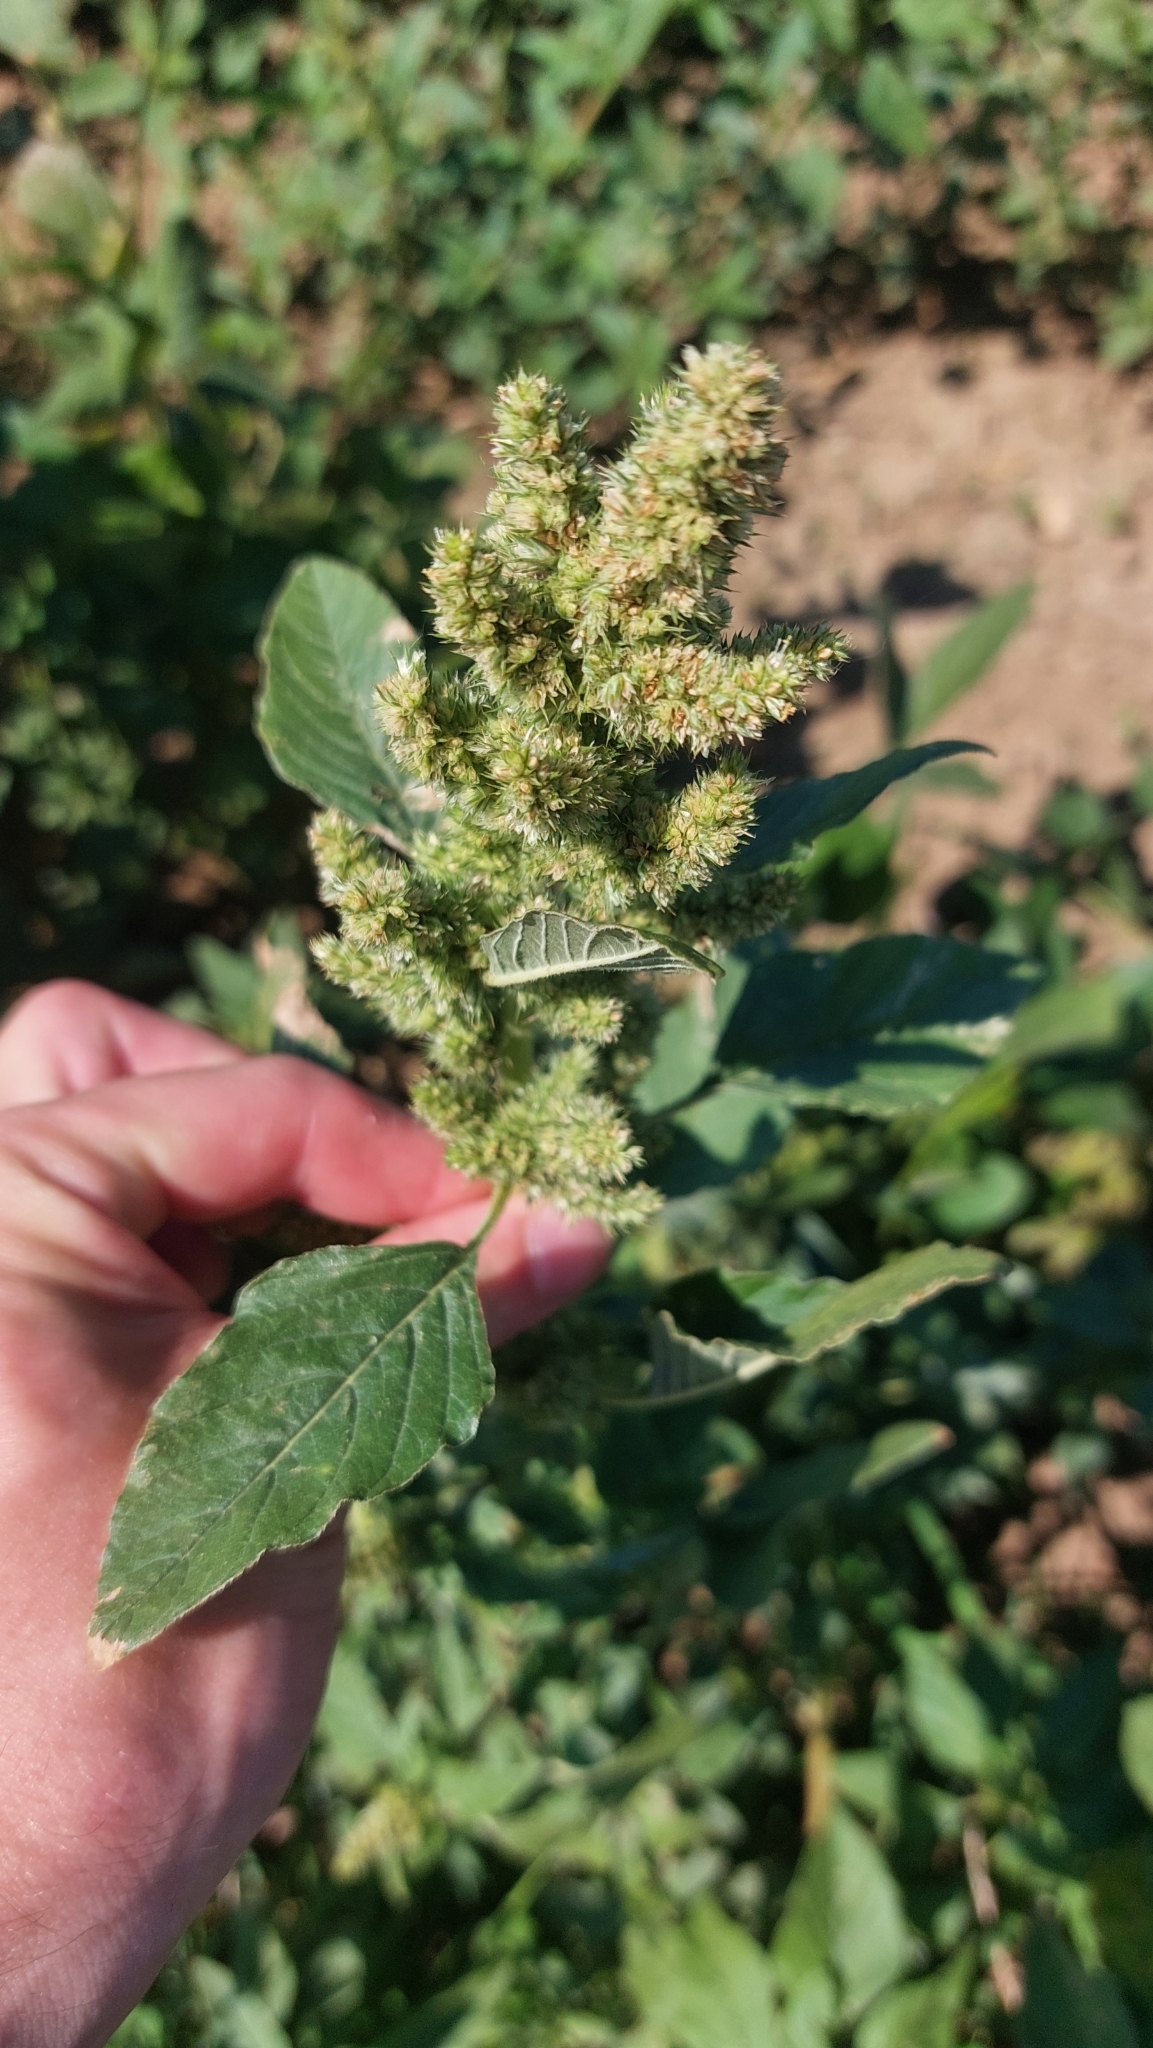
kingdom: Plantae
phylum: Tracheophyta
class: Magnoliopsida
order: Caryophyllales
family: Amaranthaceae
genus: Amaranthus
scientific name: Amaranthus retroflexus
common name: Redroot amaranth
